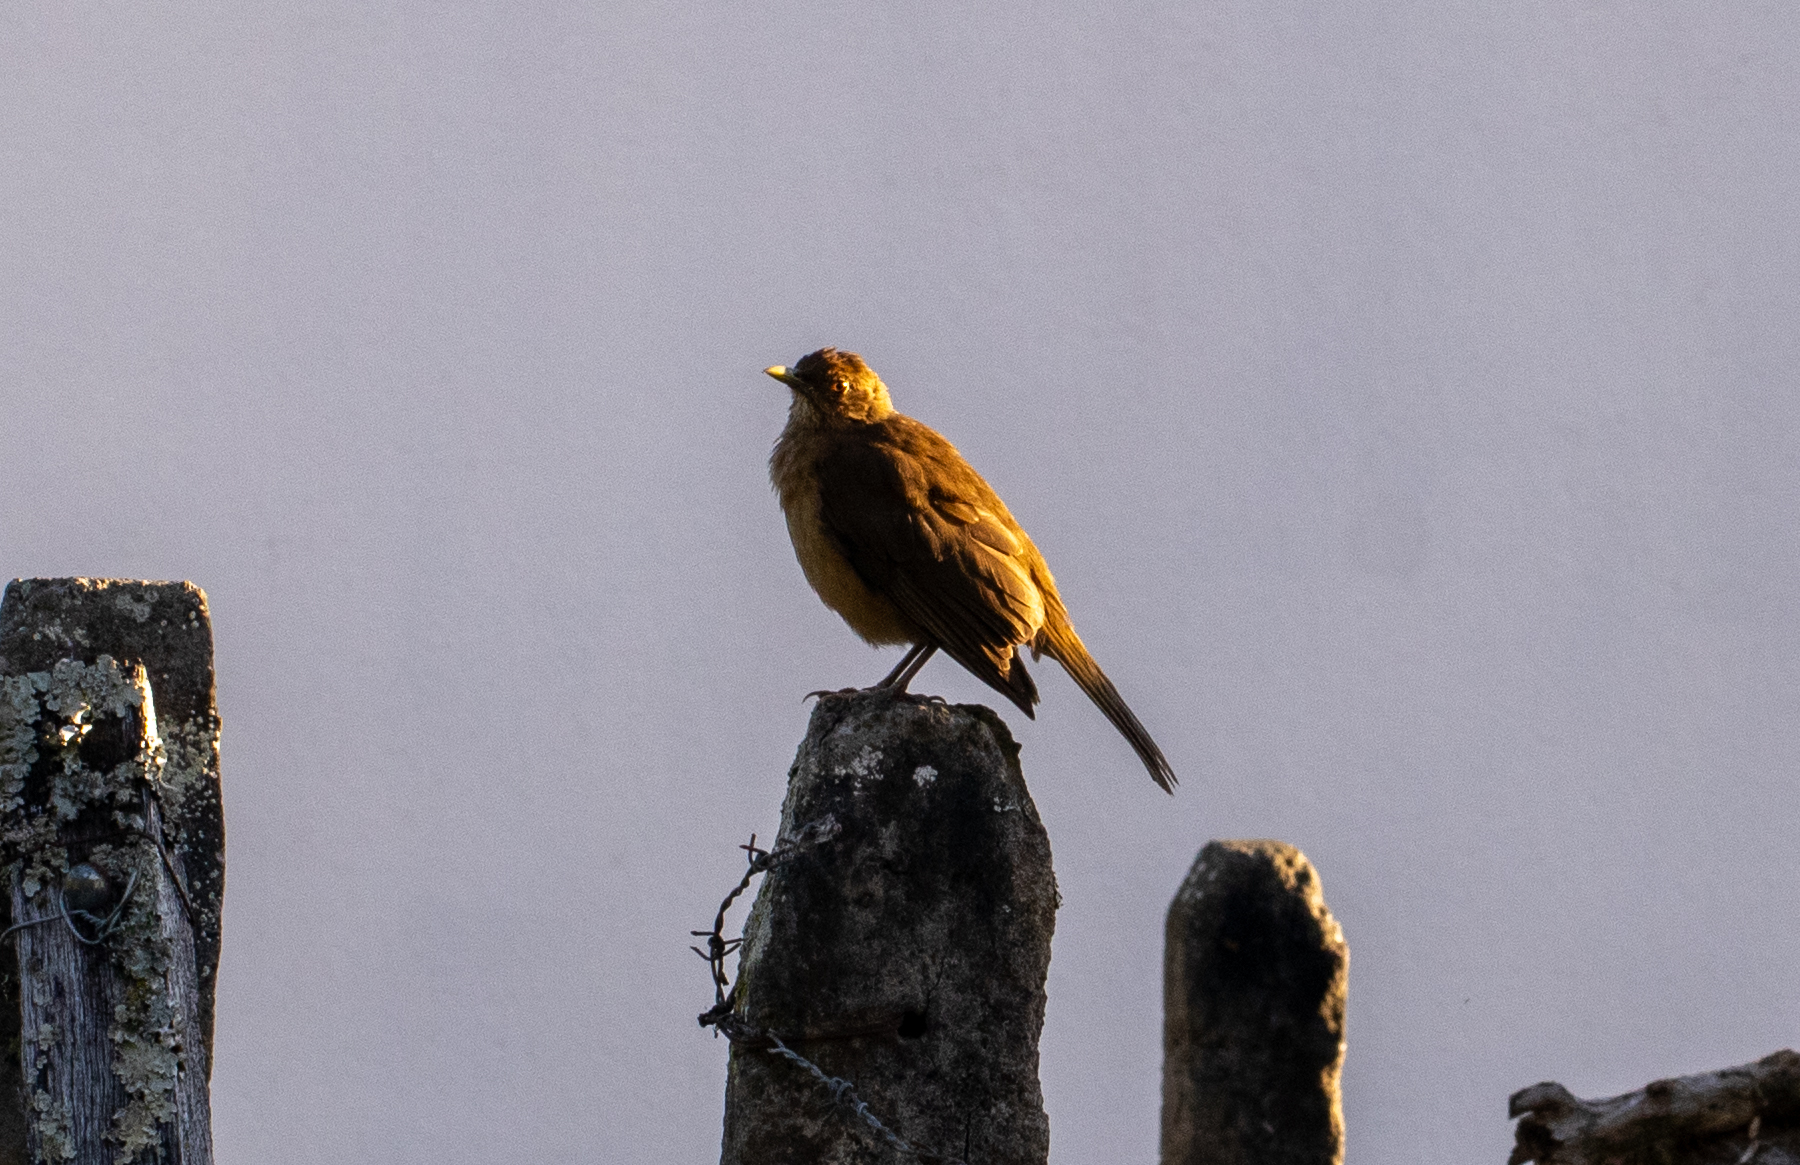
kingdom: Animalia
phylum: Chordata
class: Aves
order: Passeriformes
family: Turdidae
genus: Turdus
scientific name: Turdus grayi
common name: Clay-colored thrush
